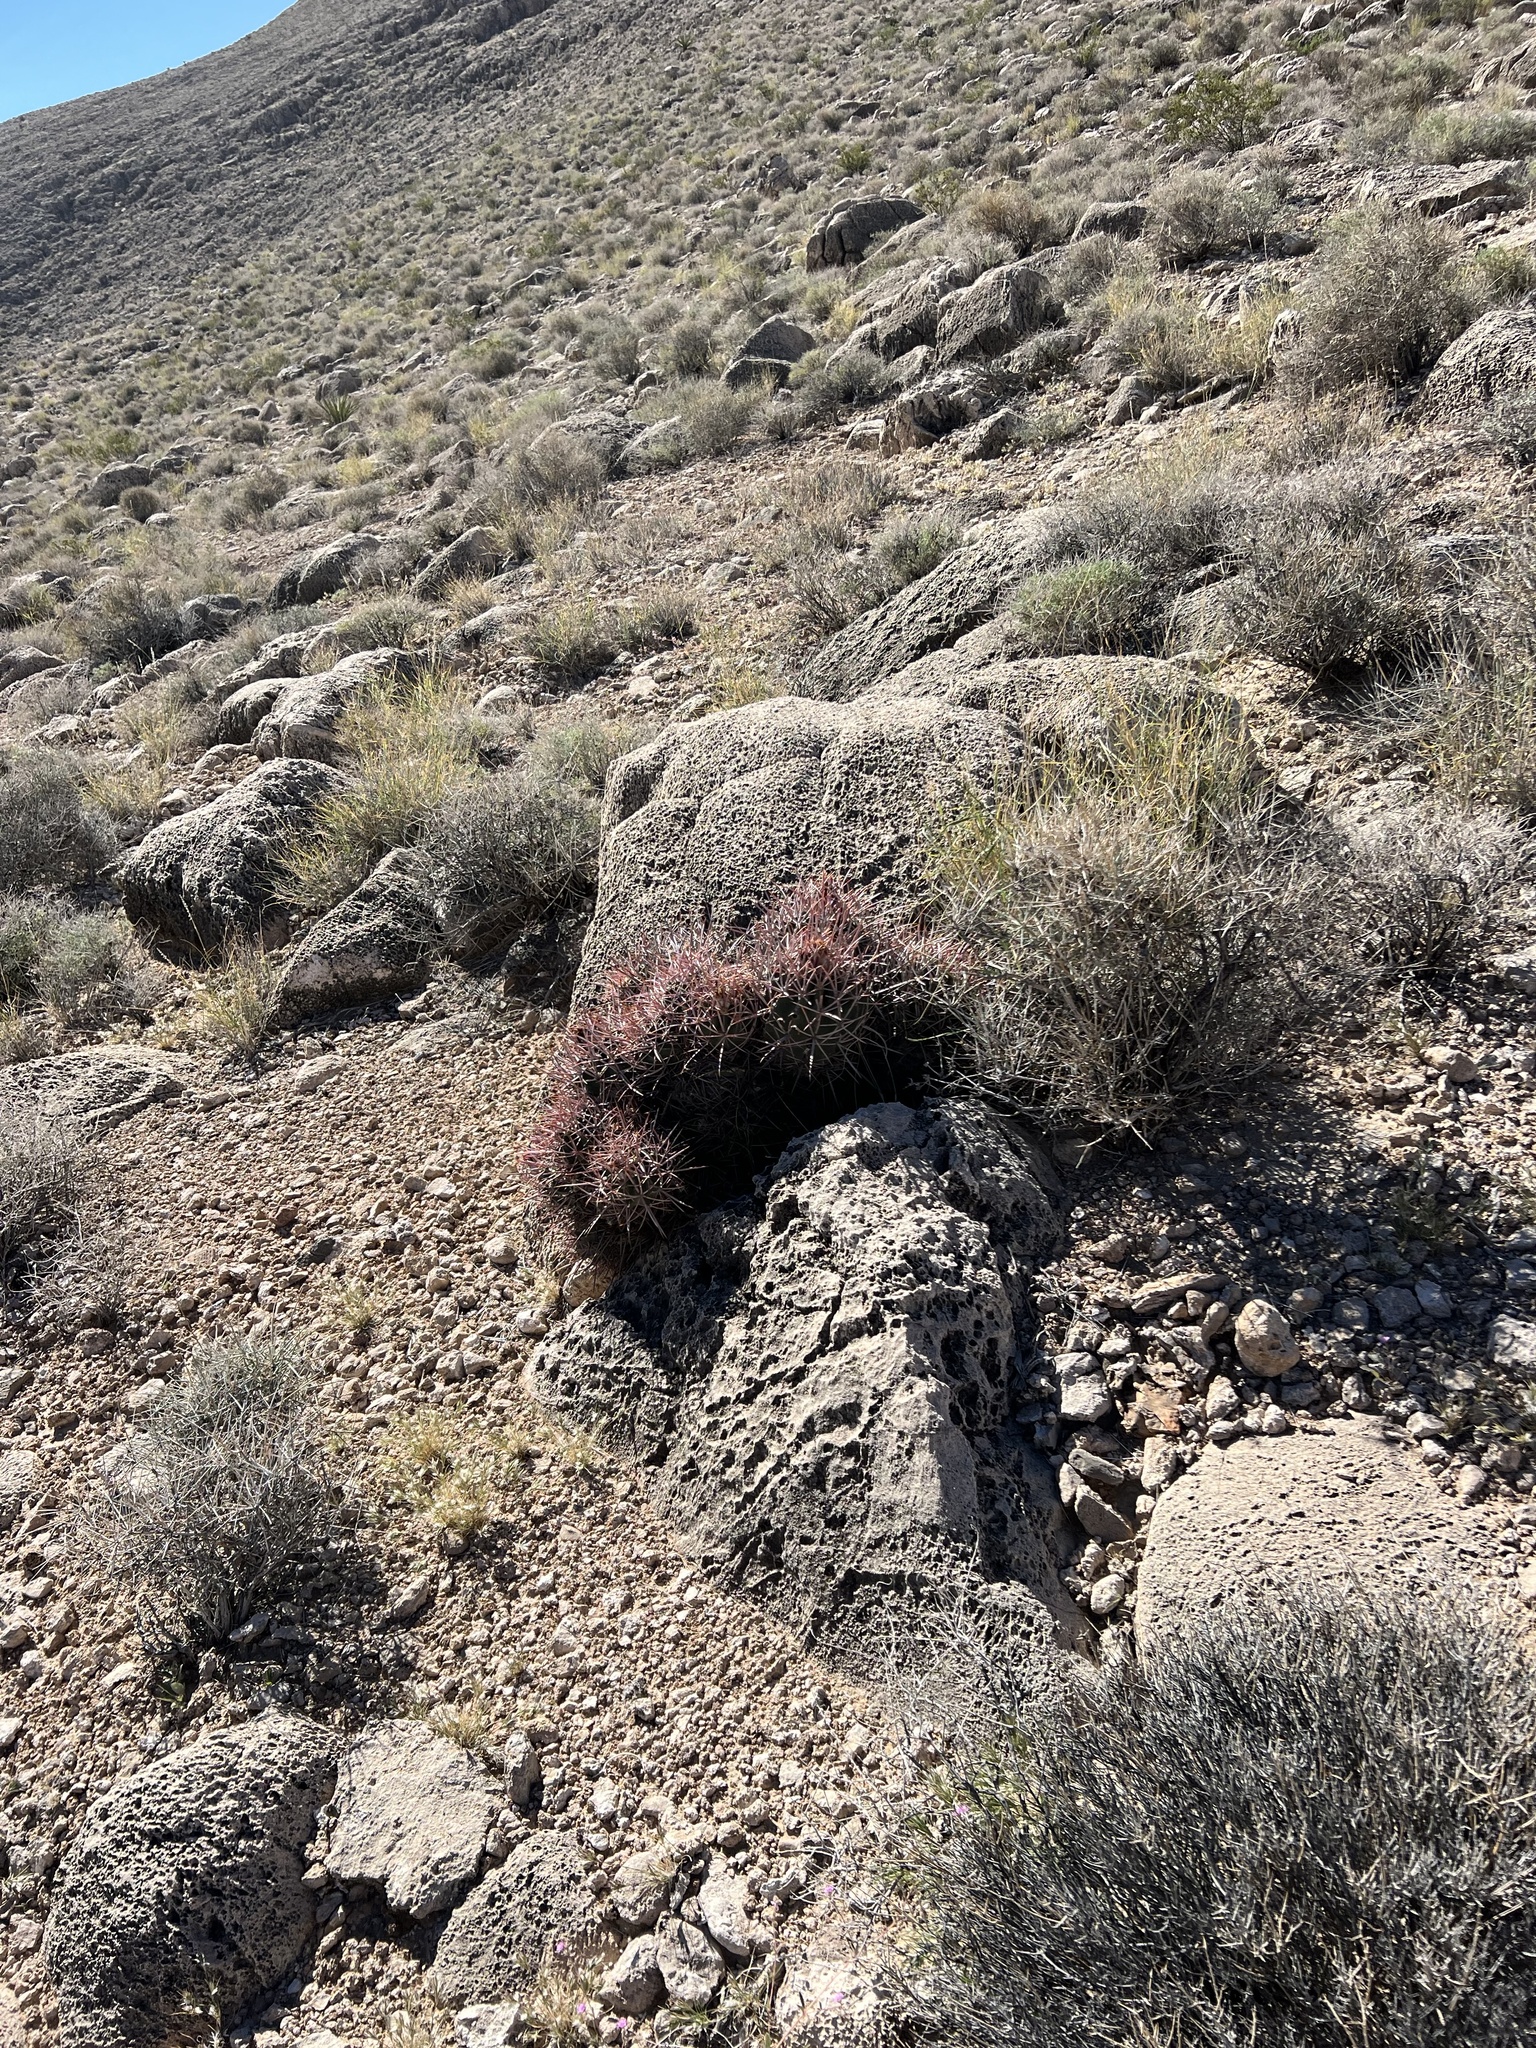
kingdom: Plantae
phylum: Tracheophyta
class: Magnoliopsida
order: Caryophyllales
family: Cactaceae
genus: Echinocactus
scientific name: Echinocactus polycephalus
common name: Cottontop cactus
